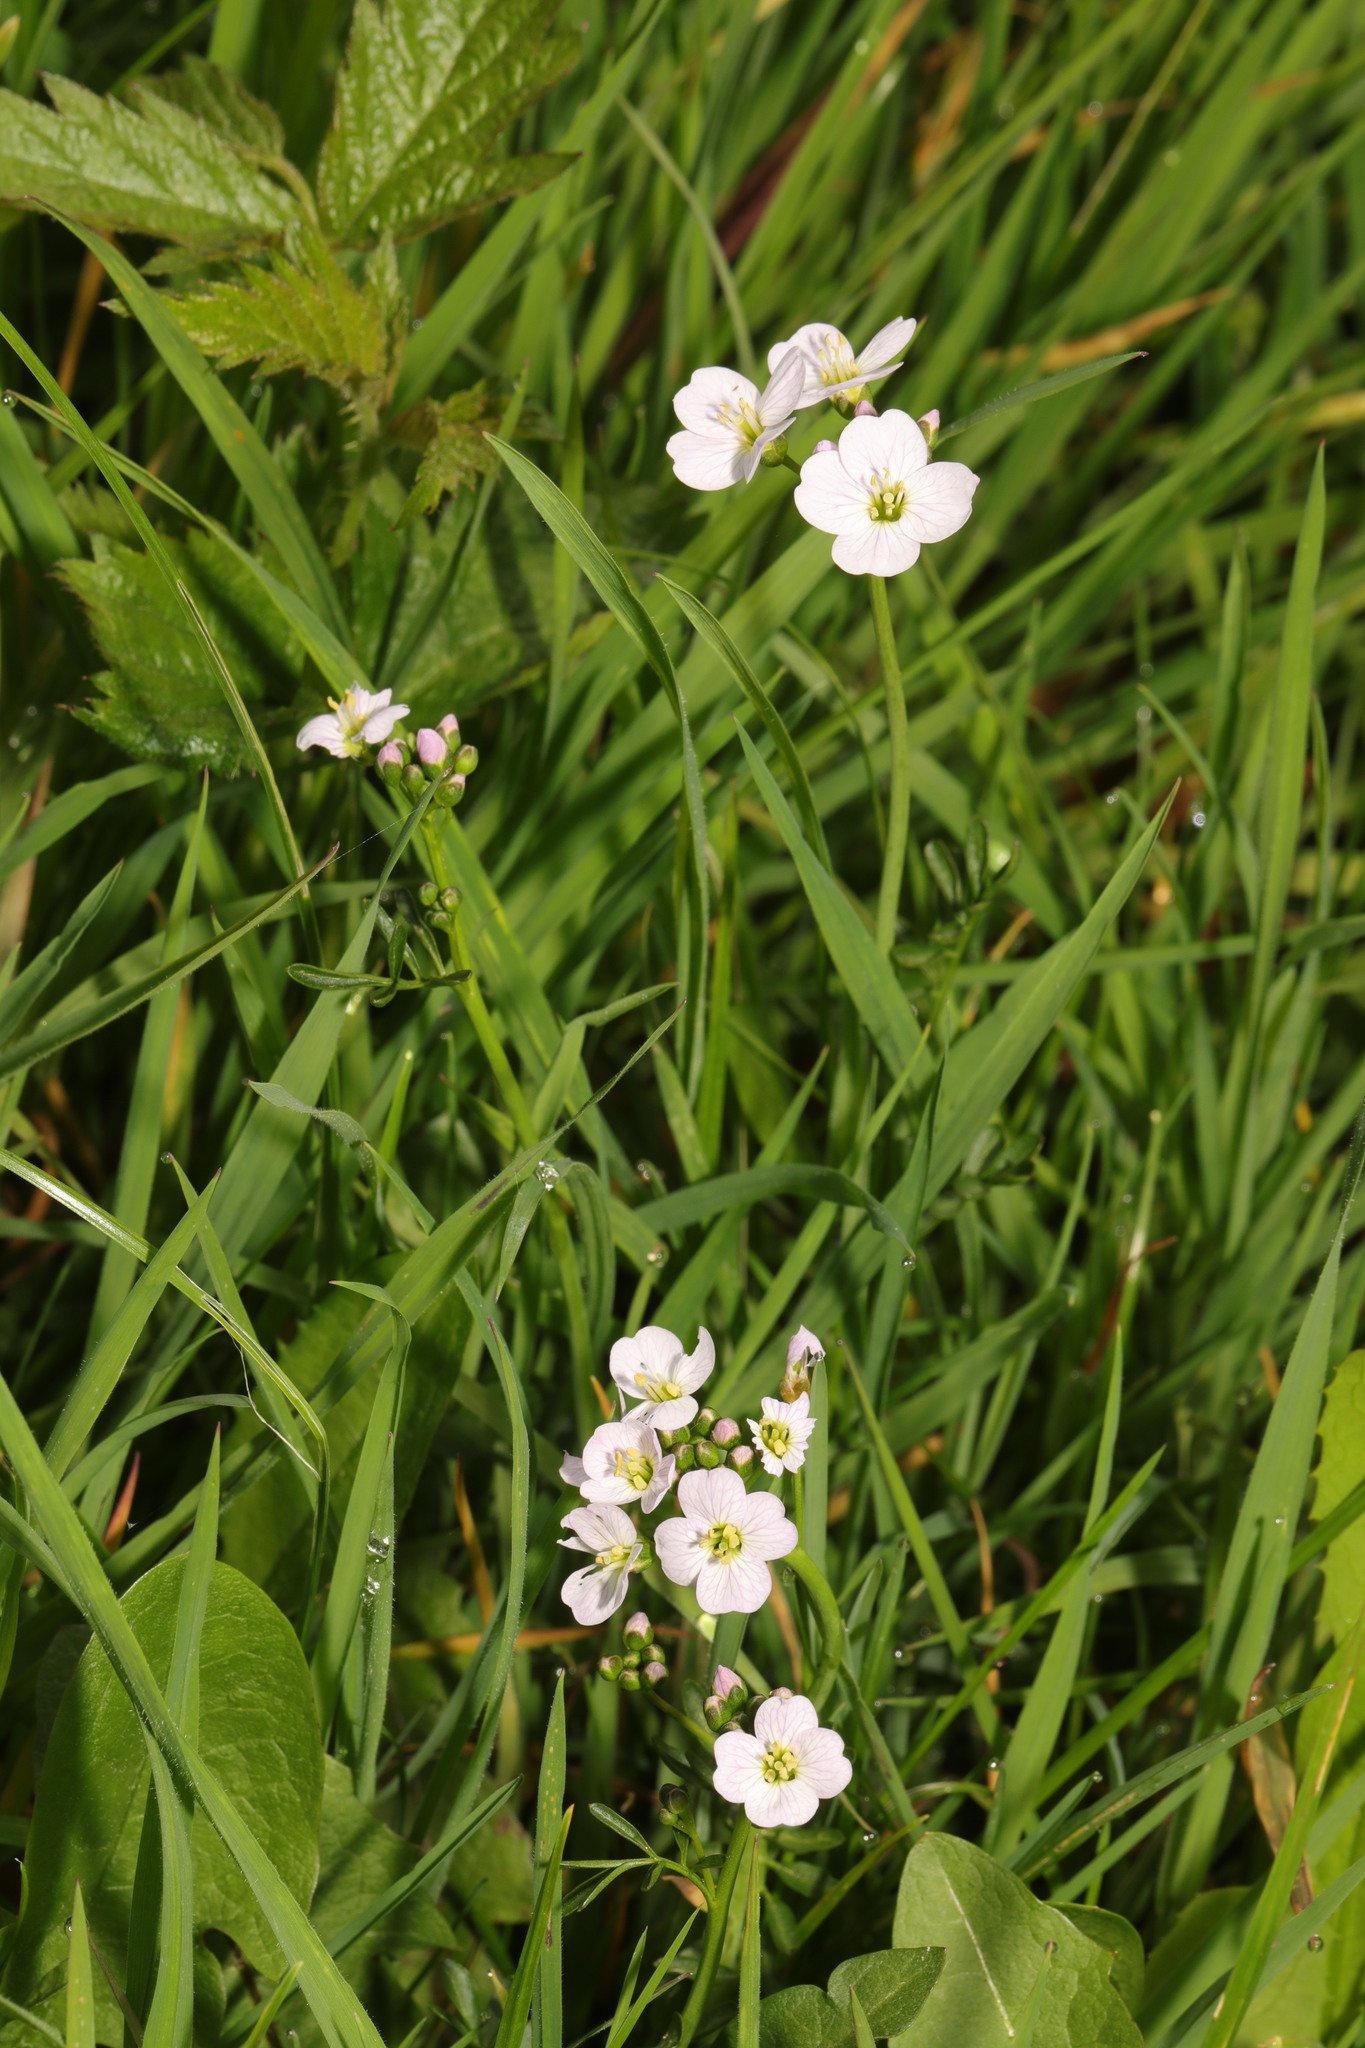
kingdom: Plantae
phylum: Tracheophyta
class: Magnoliopsida
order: Brassicales
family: Brassicaceae
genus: Cardamine
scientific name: Cardamine pratensis
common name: Cuckoo flower
